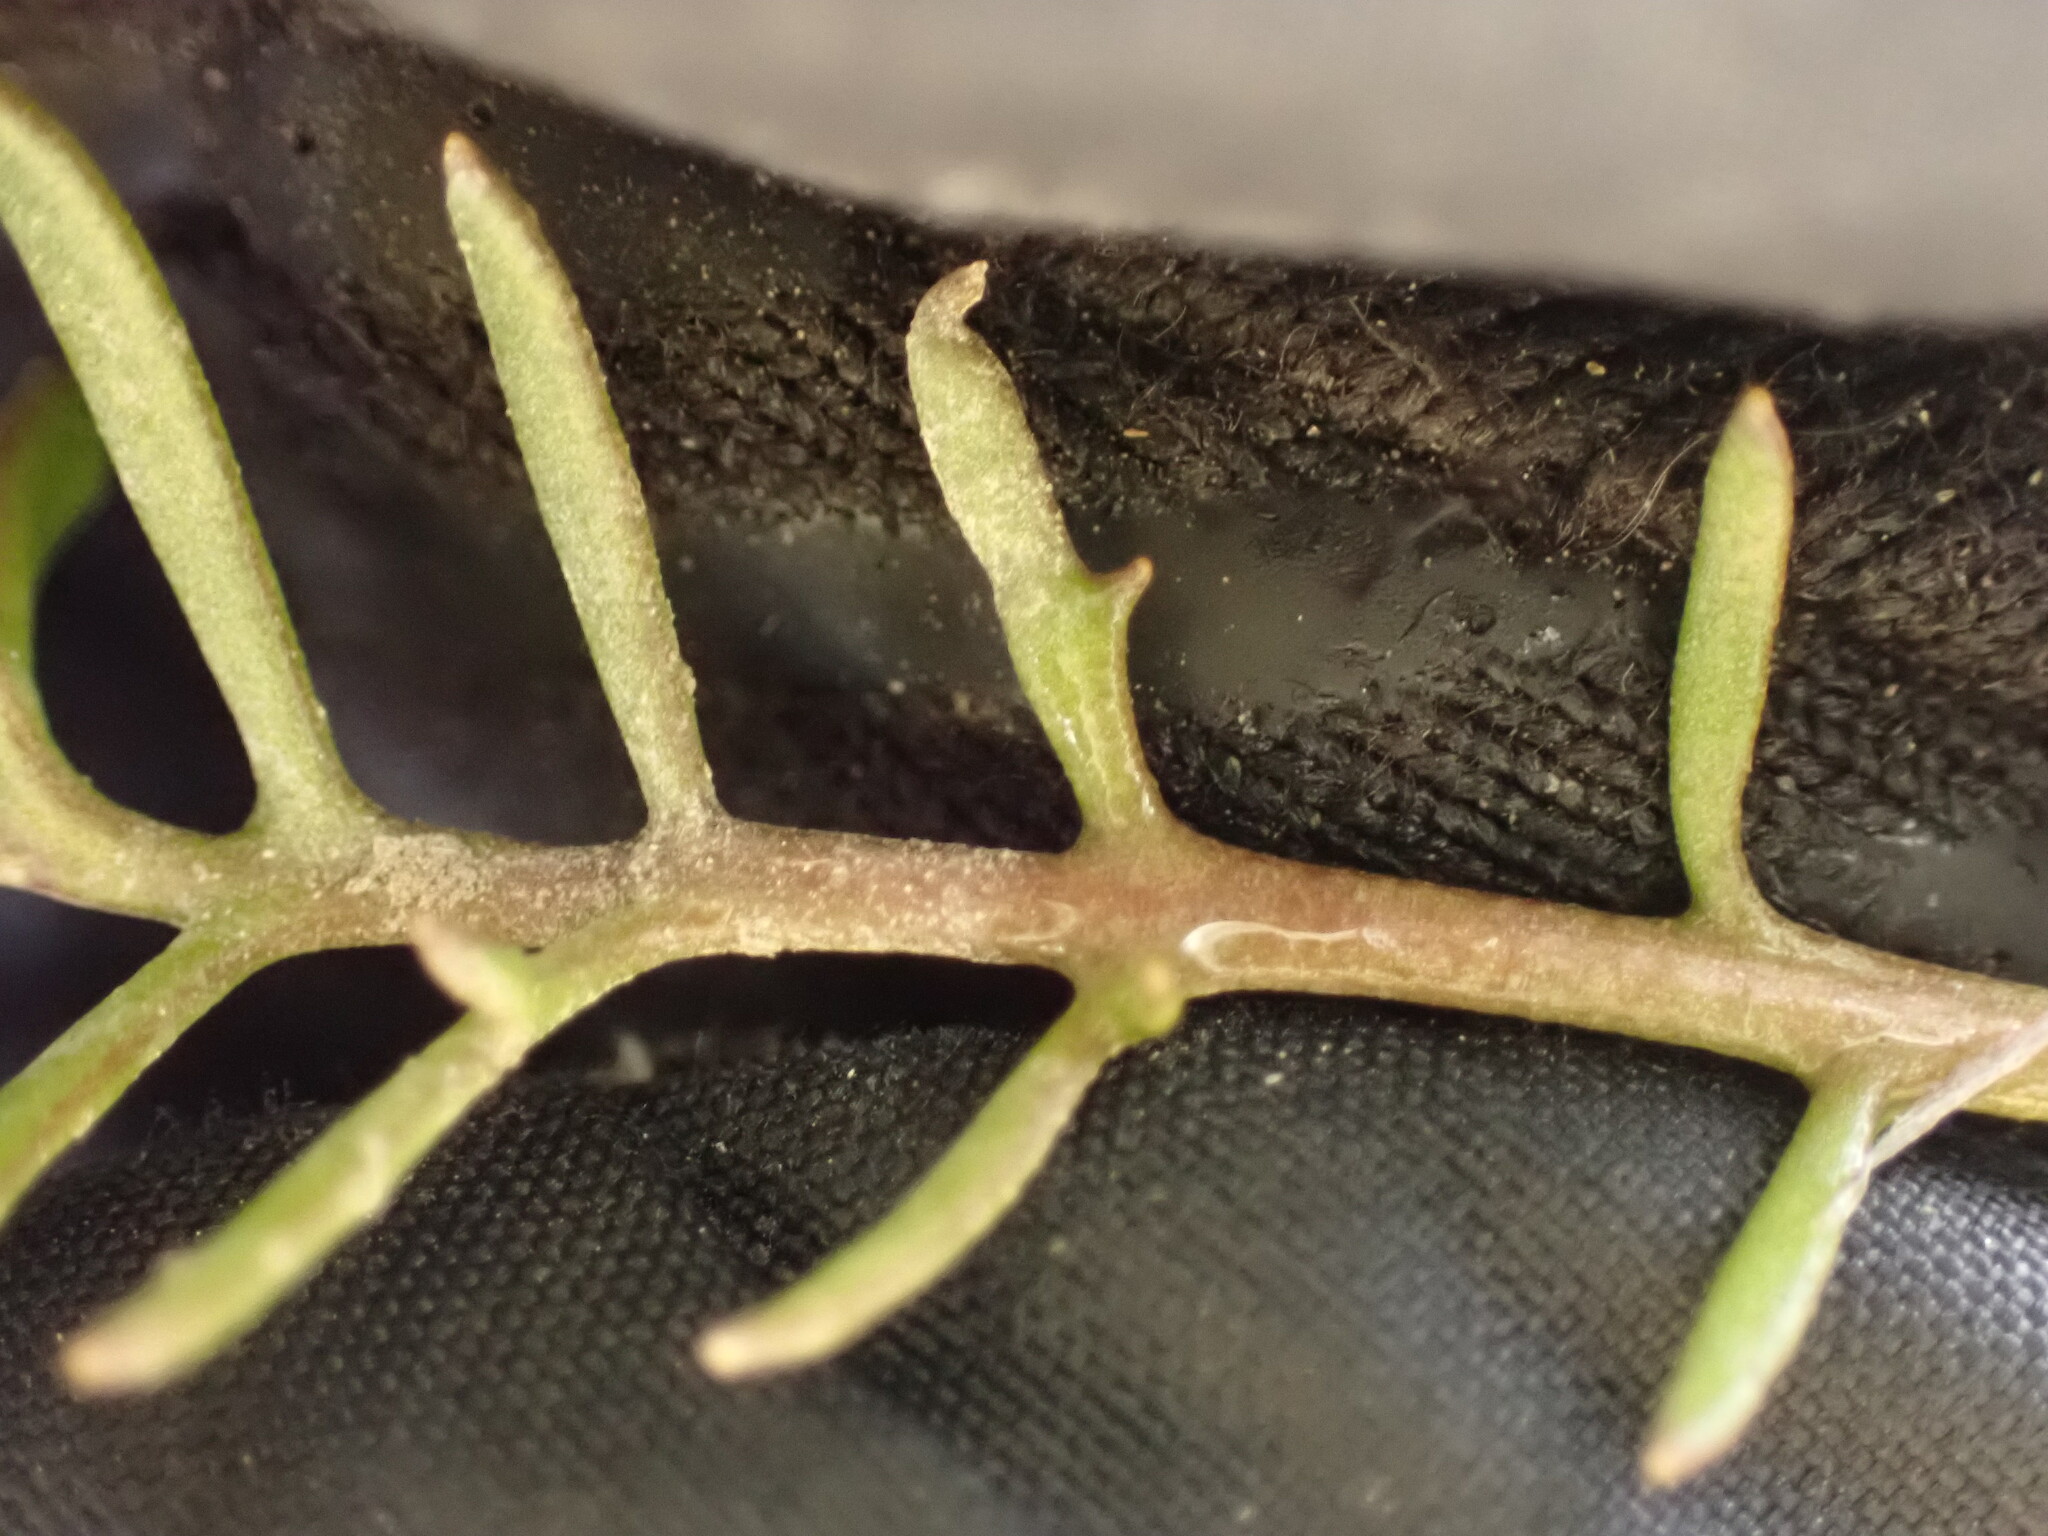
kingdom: Plantae
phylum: Tracheophyta
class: Magnoliopsida
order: Brassicales
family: Brassicaceae
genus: Sisymbrella
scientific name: Sisymbrella aspera
